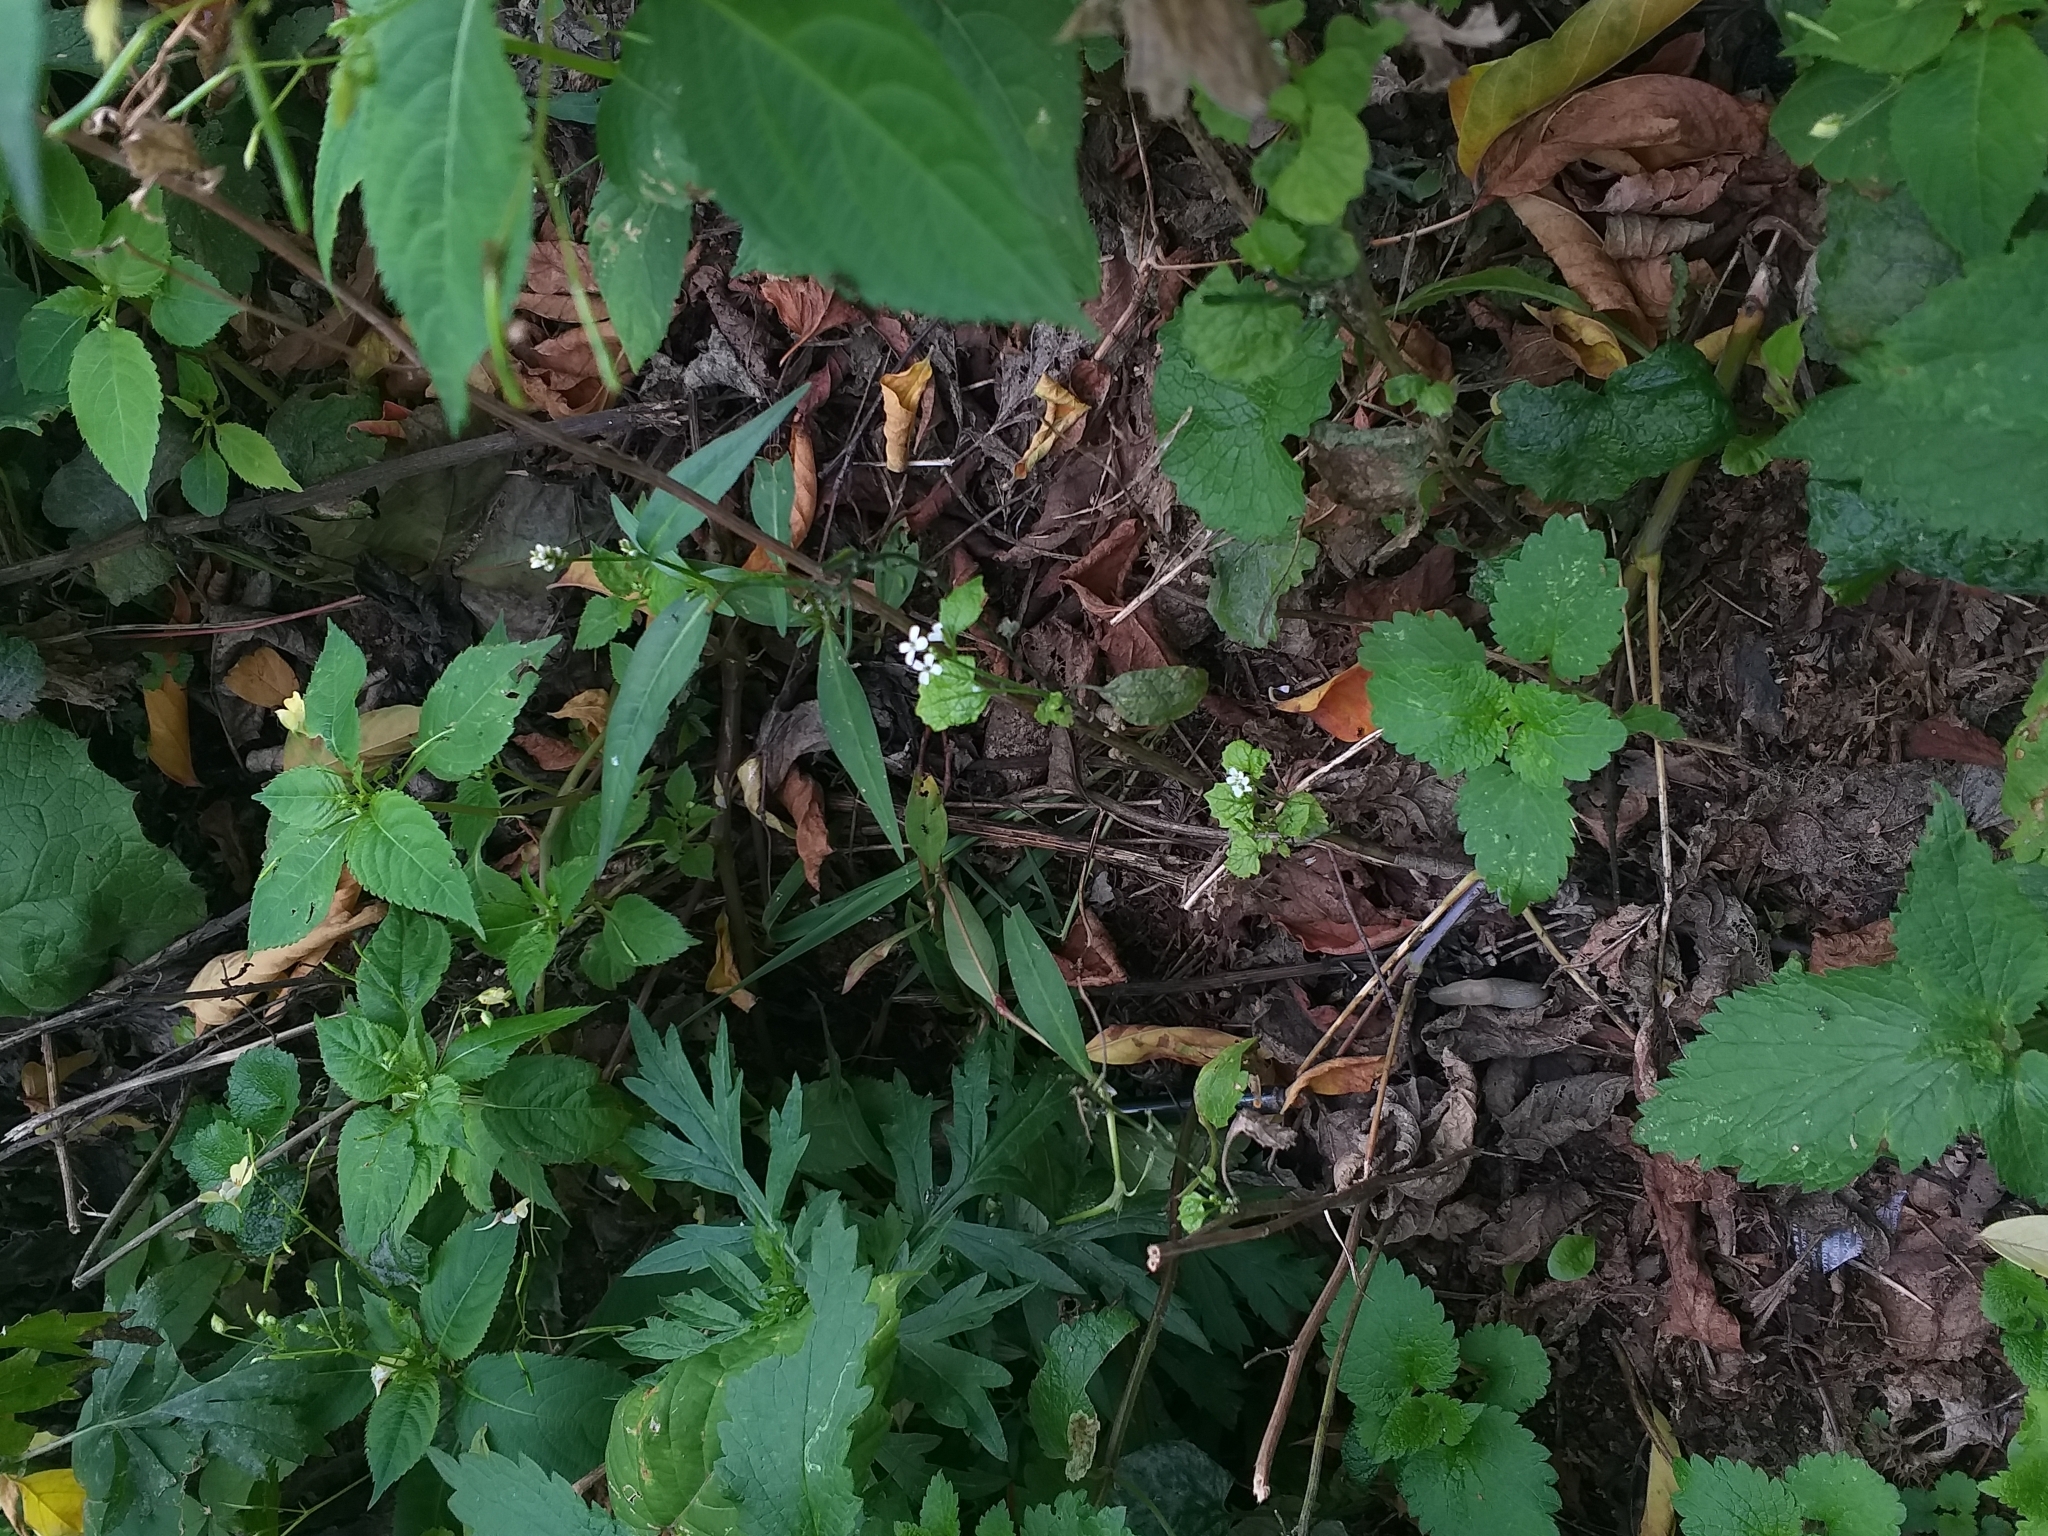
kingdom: Plantae
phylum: Tracheophyta
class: Magnoliopsida
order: Brassicales
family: Brassicaceae
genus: Alliaria
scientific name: Alliaria petiolata
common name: Garlic mustard
